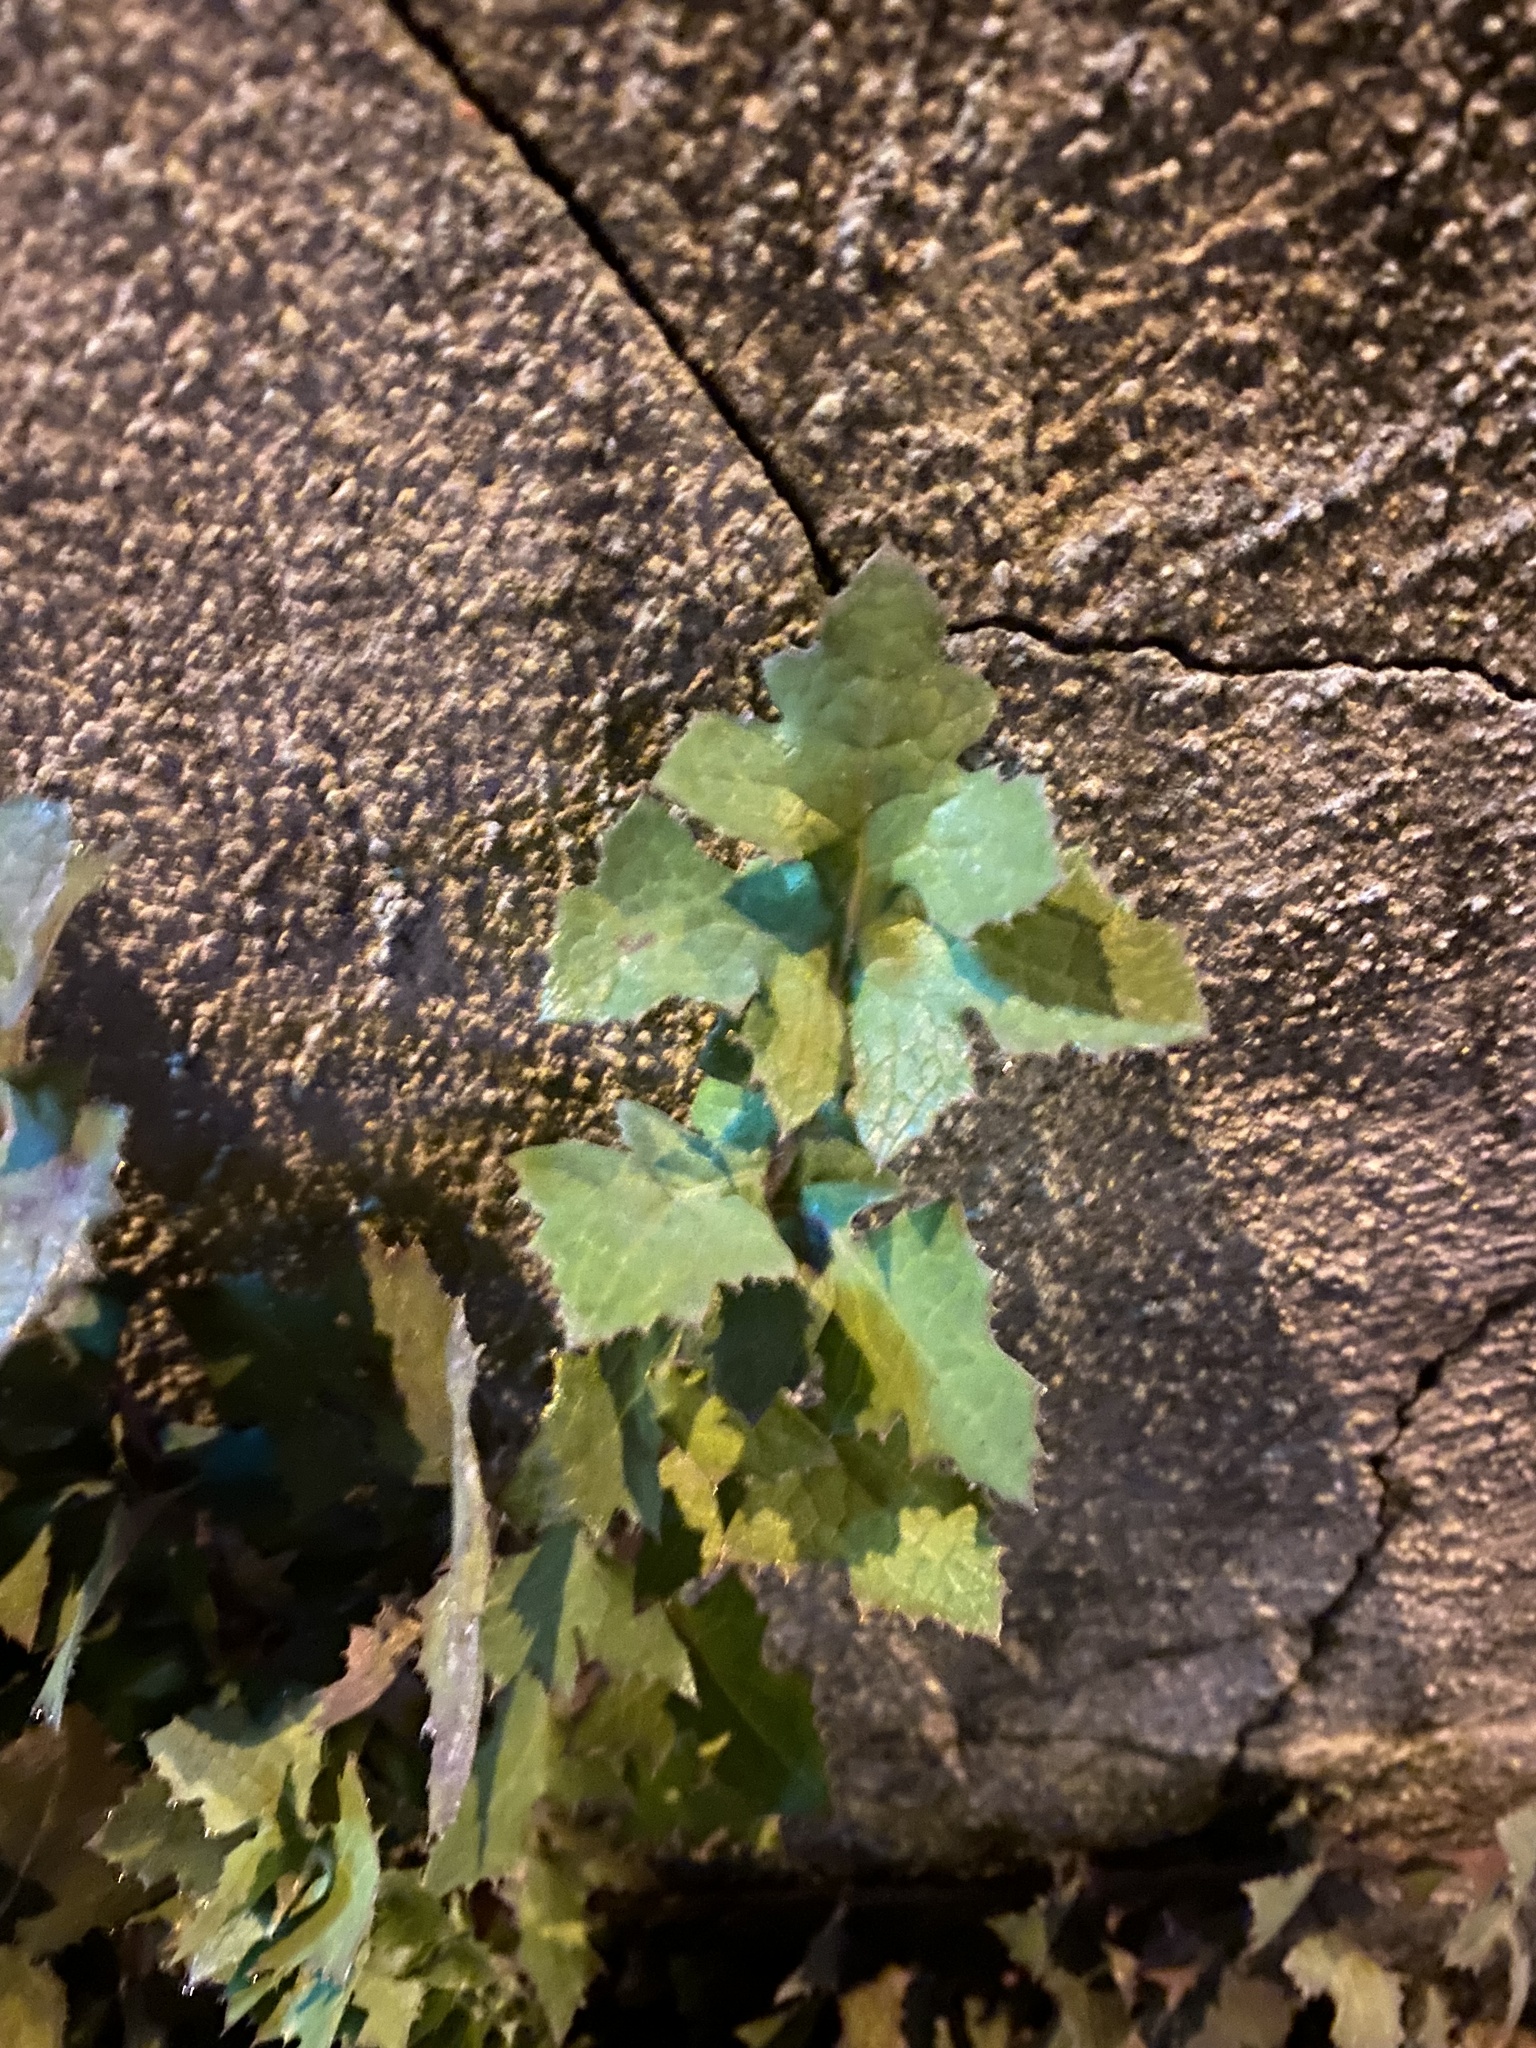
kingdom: Plantae
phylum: Tracheophyta
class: Magnoliopsida
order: Asterales
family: Asteraceae
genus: Sonchus
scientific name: Sonchus oleraceus
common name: Common sowthistle
